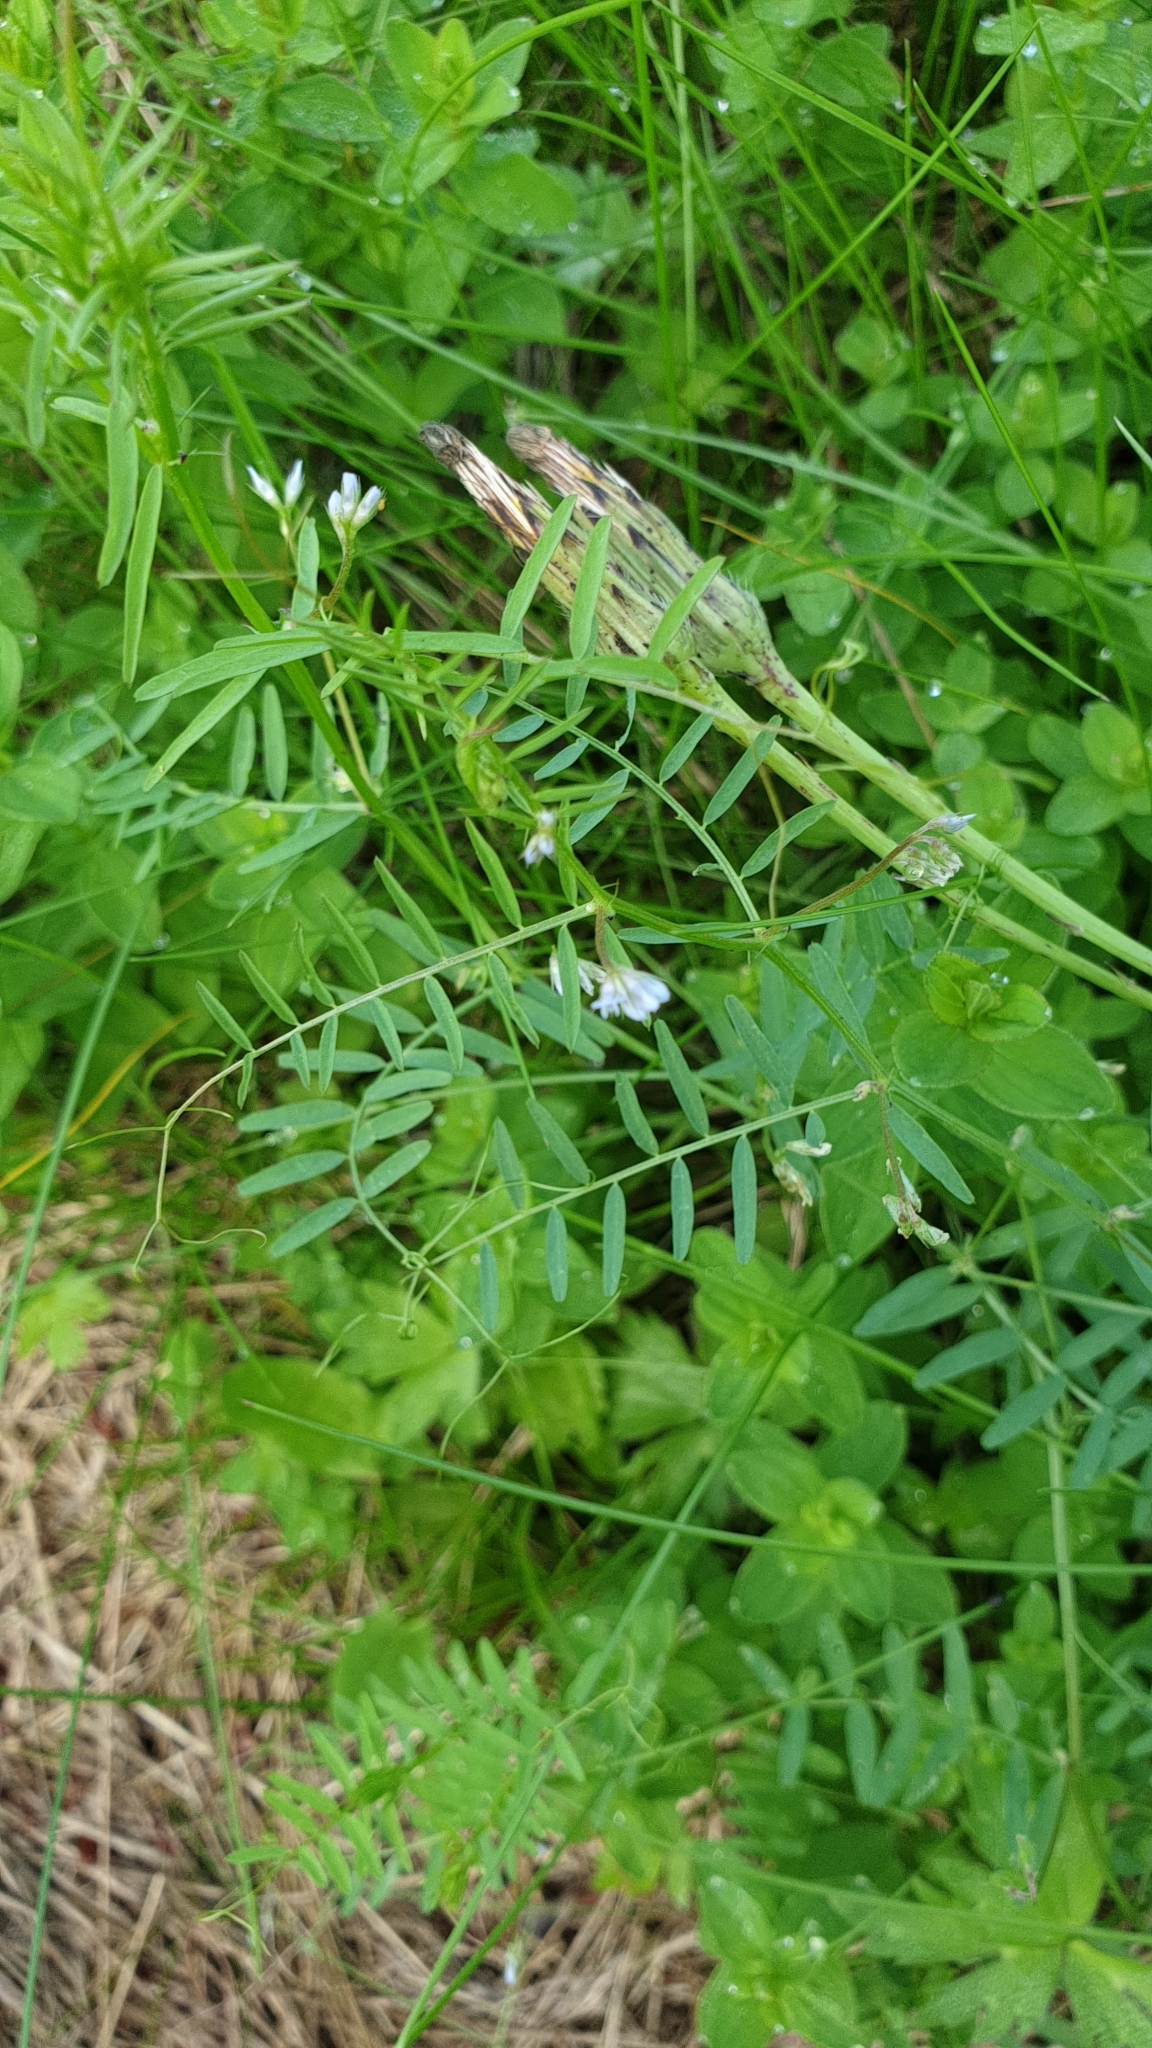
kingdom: Plantae
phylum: Tracheophyta
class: Magnoliopsida
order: Fabales
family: Fabaceae
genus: Vicia
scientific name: Vicia hirsuta
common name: Tiny vetch
